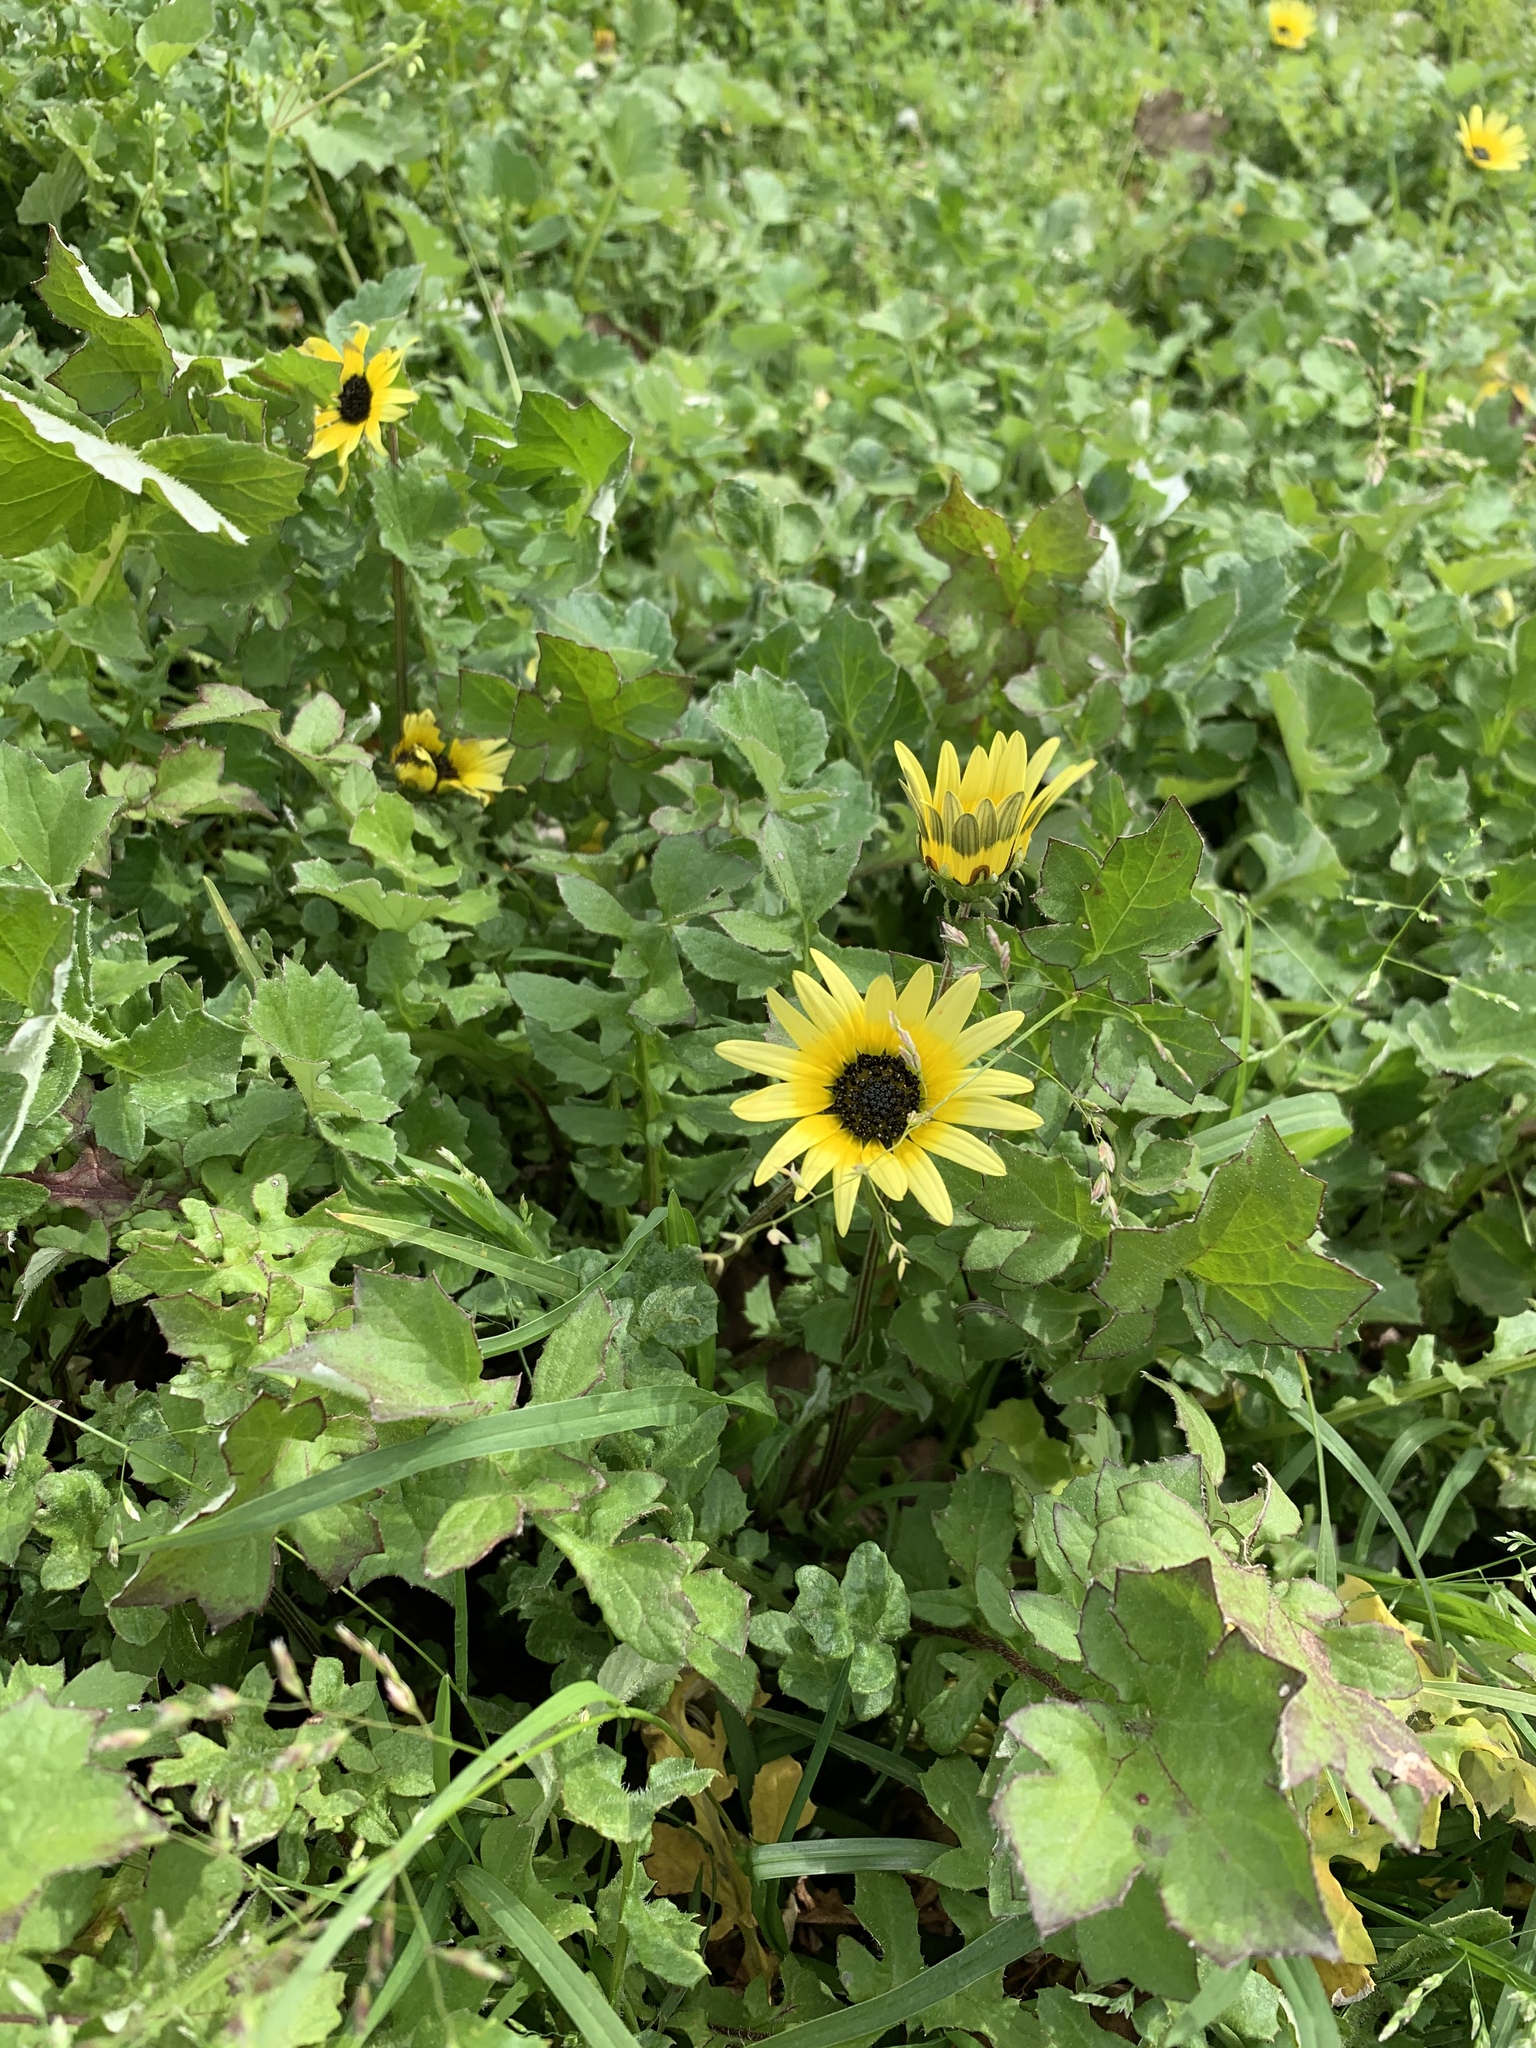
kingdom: Plantae
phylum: Tracheophyta
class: Magnoliopsida
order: Asterales
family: Asteraceae
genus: Arctotheca
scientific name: Arctotheca calendula
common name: Capeweed
